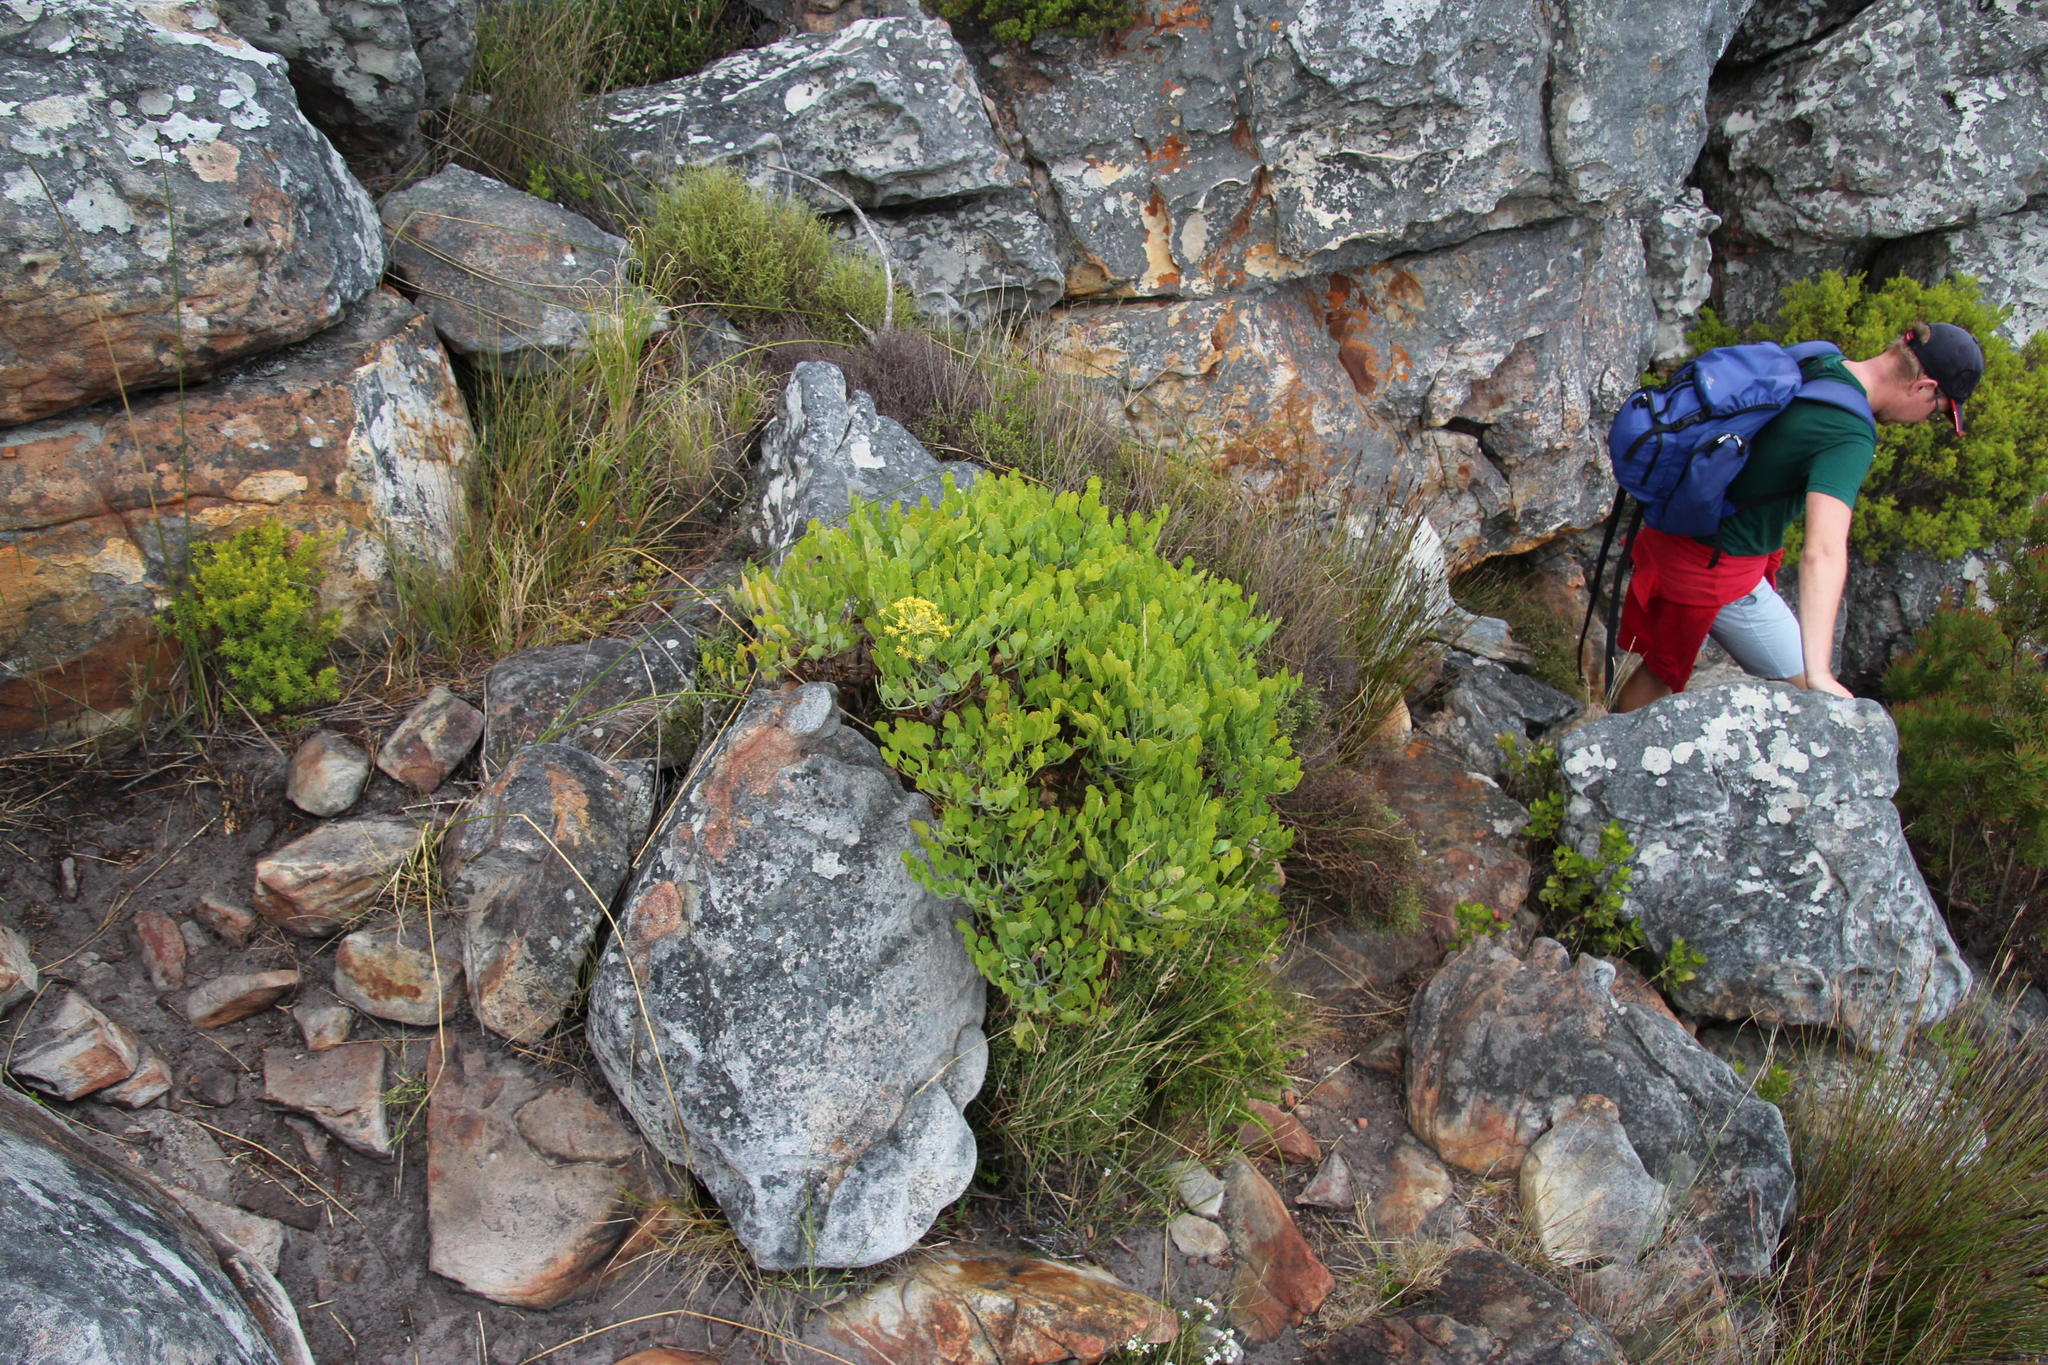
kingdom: Plantae
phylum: Tracheophyta
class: Magnoliopsida
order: Apiales
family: Apiaceae
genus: Notobubon
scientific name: Notobubon galbanum
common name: Blisterbush
